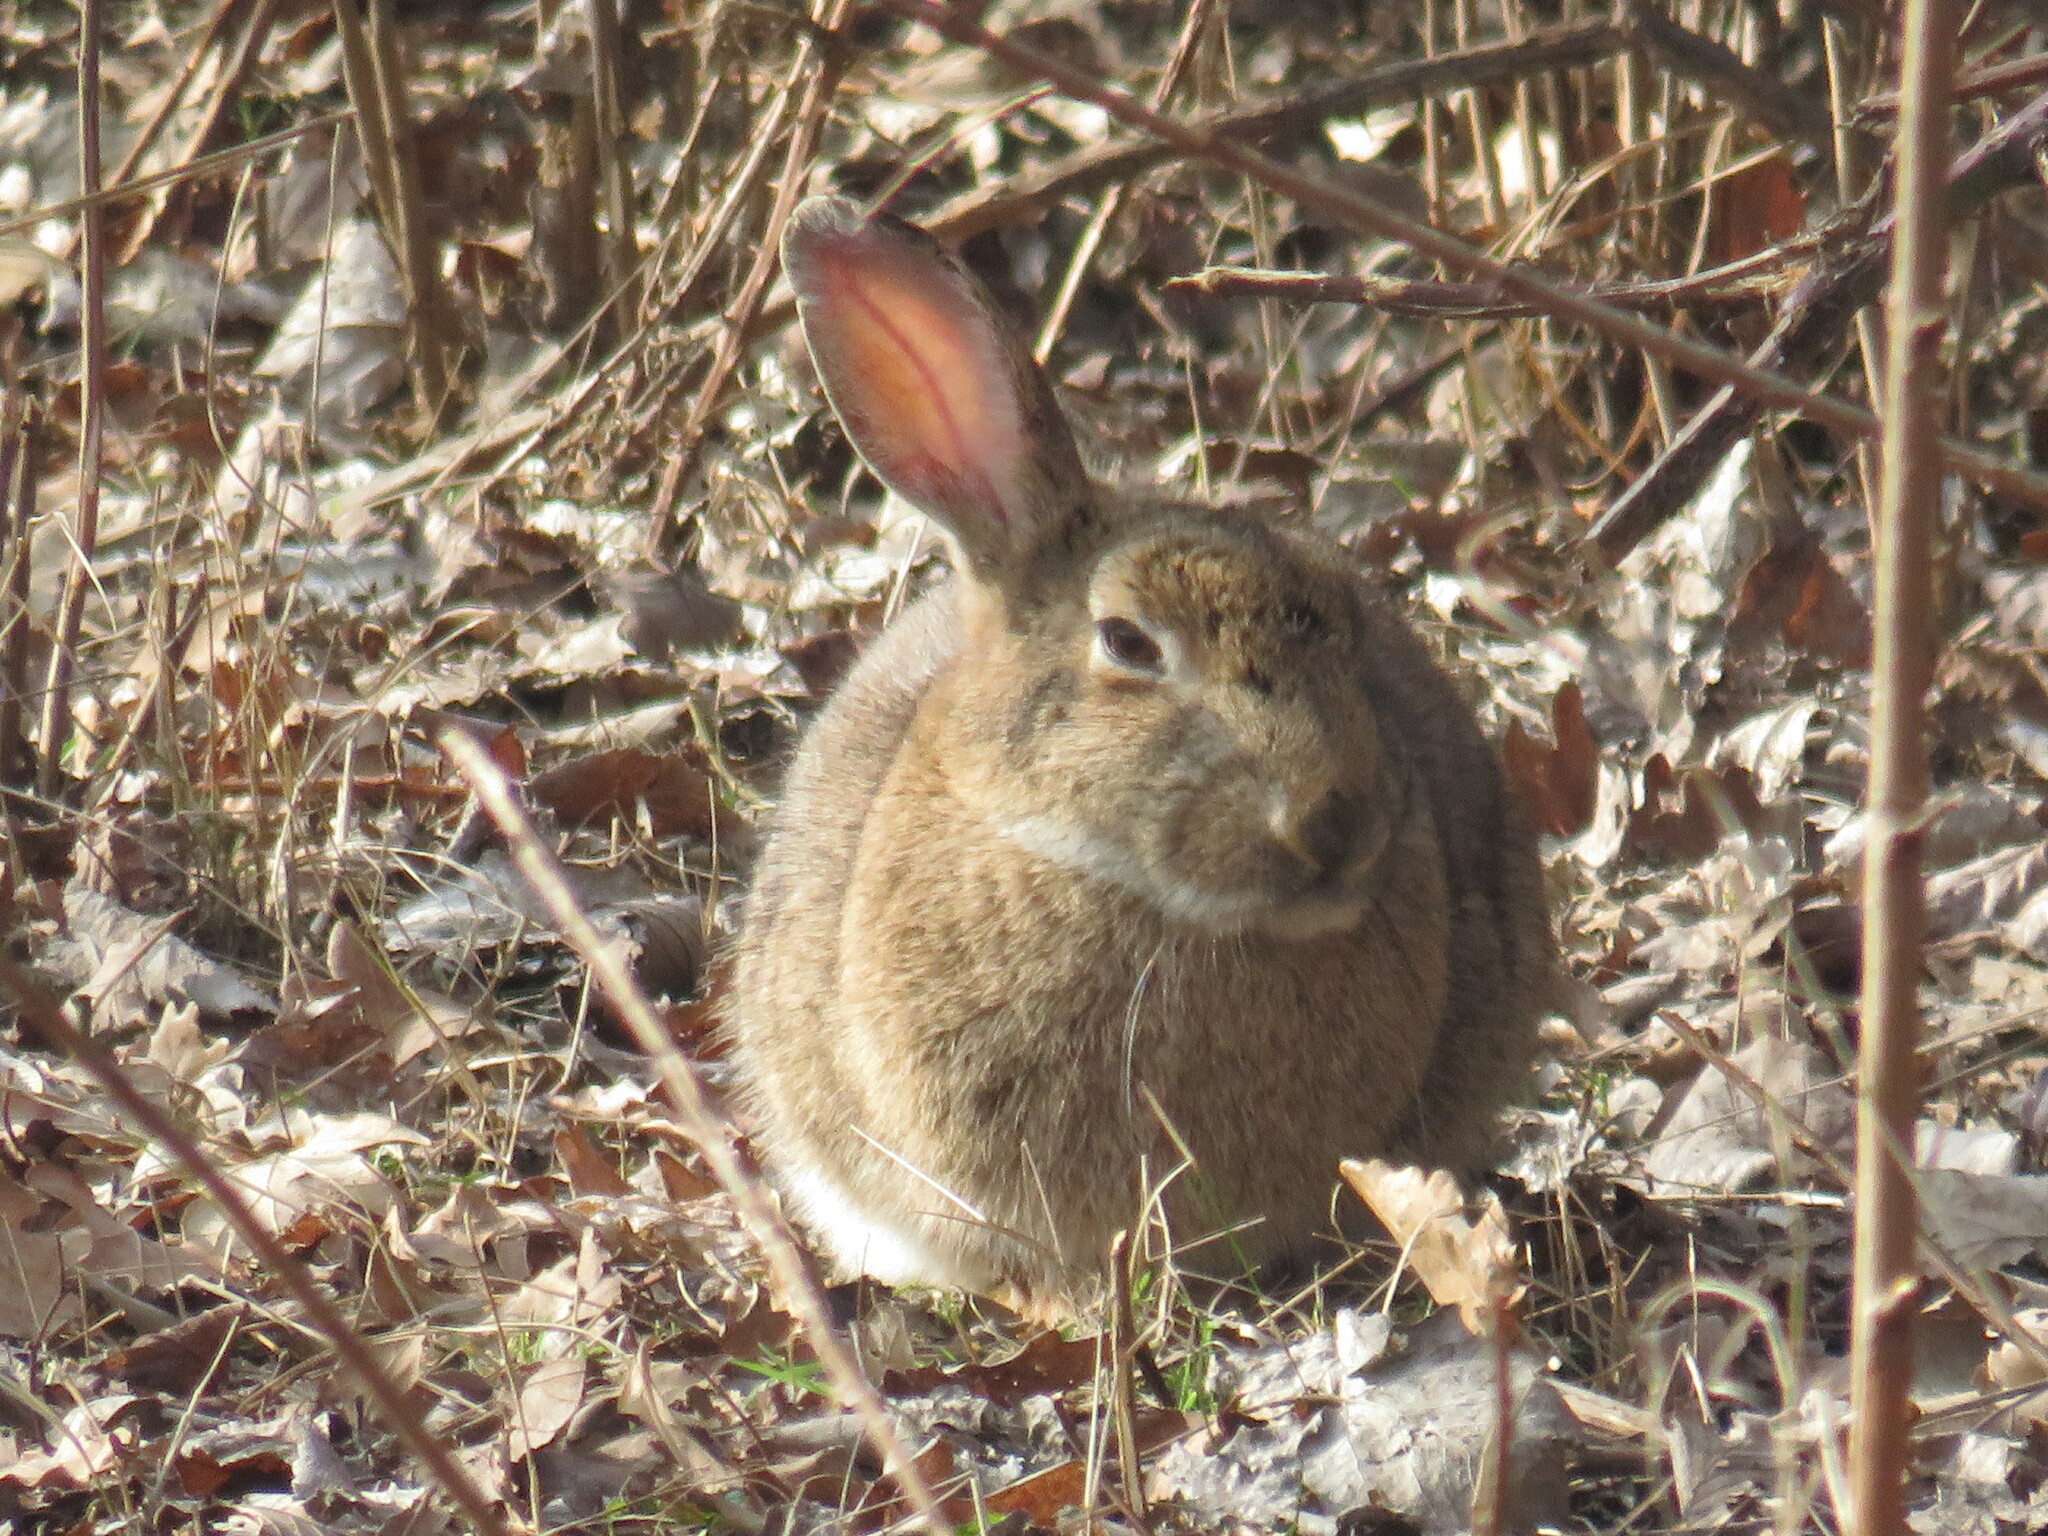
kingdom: Animalia
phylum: Chordata
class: Mammalia
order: Lagomorpha
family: Leporidae
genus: Oryctolagus
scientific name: Oryctolagus cuniculus
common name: European rabbit
